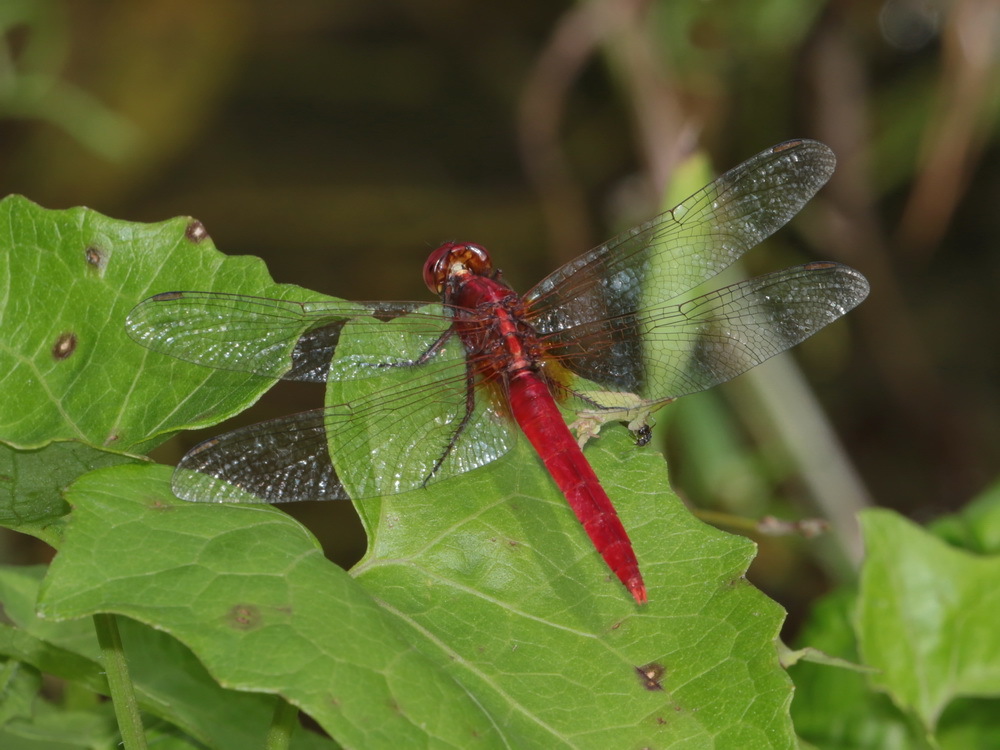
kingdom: Animalia
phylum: Arthropoda
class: Insecta
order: Odonata
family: Libellulidae
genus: Rhodothemis
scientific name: Rhodothemis rufa
